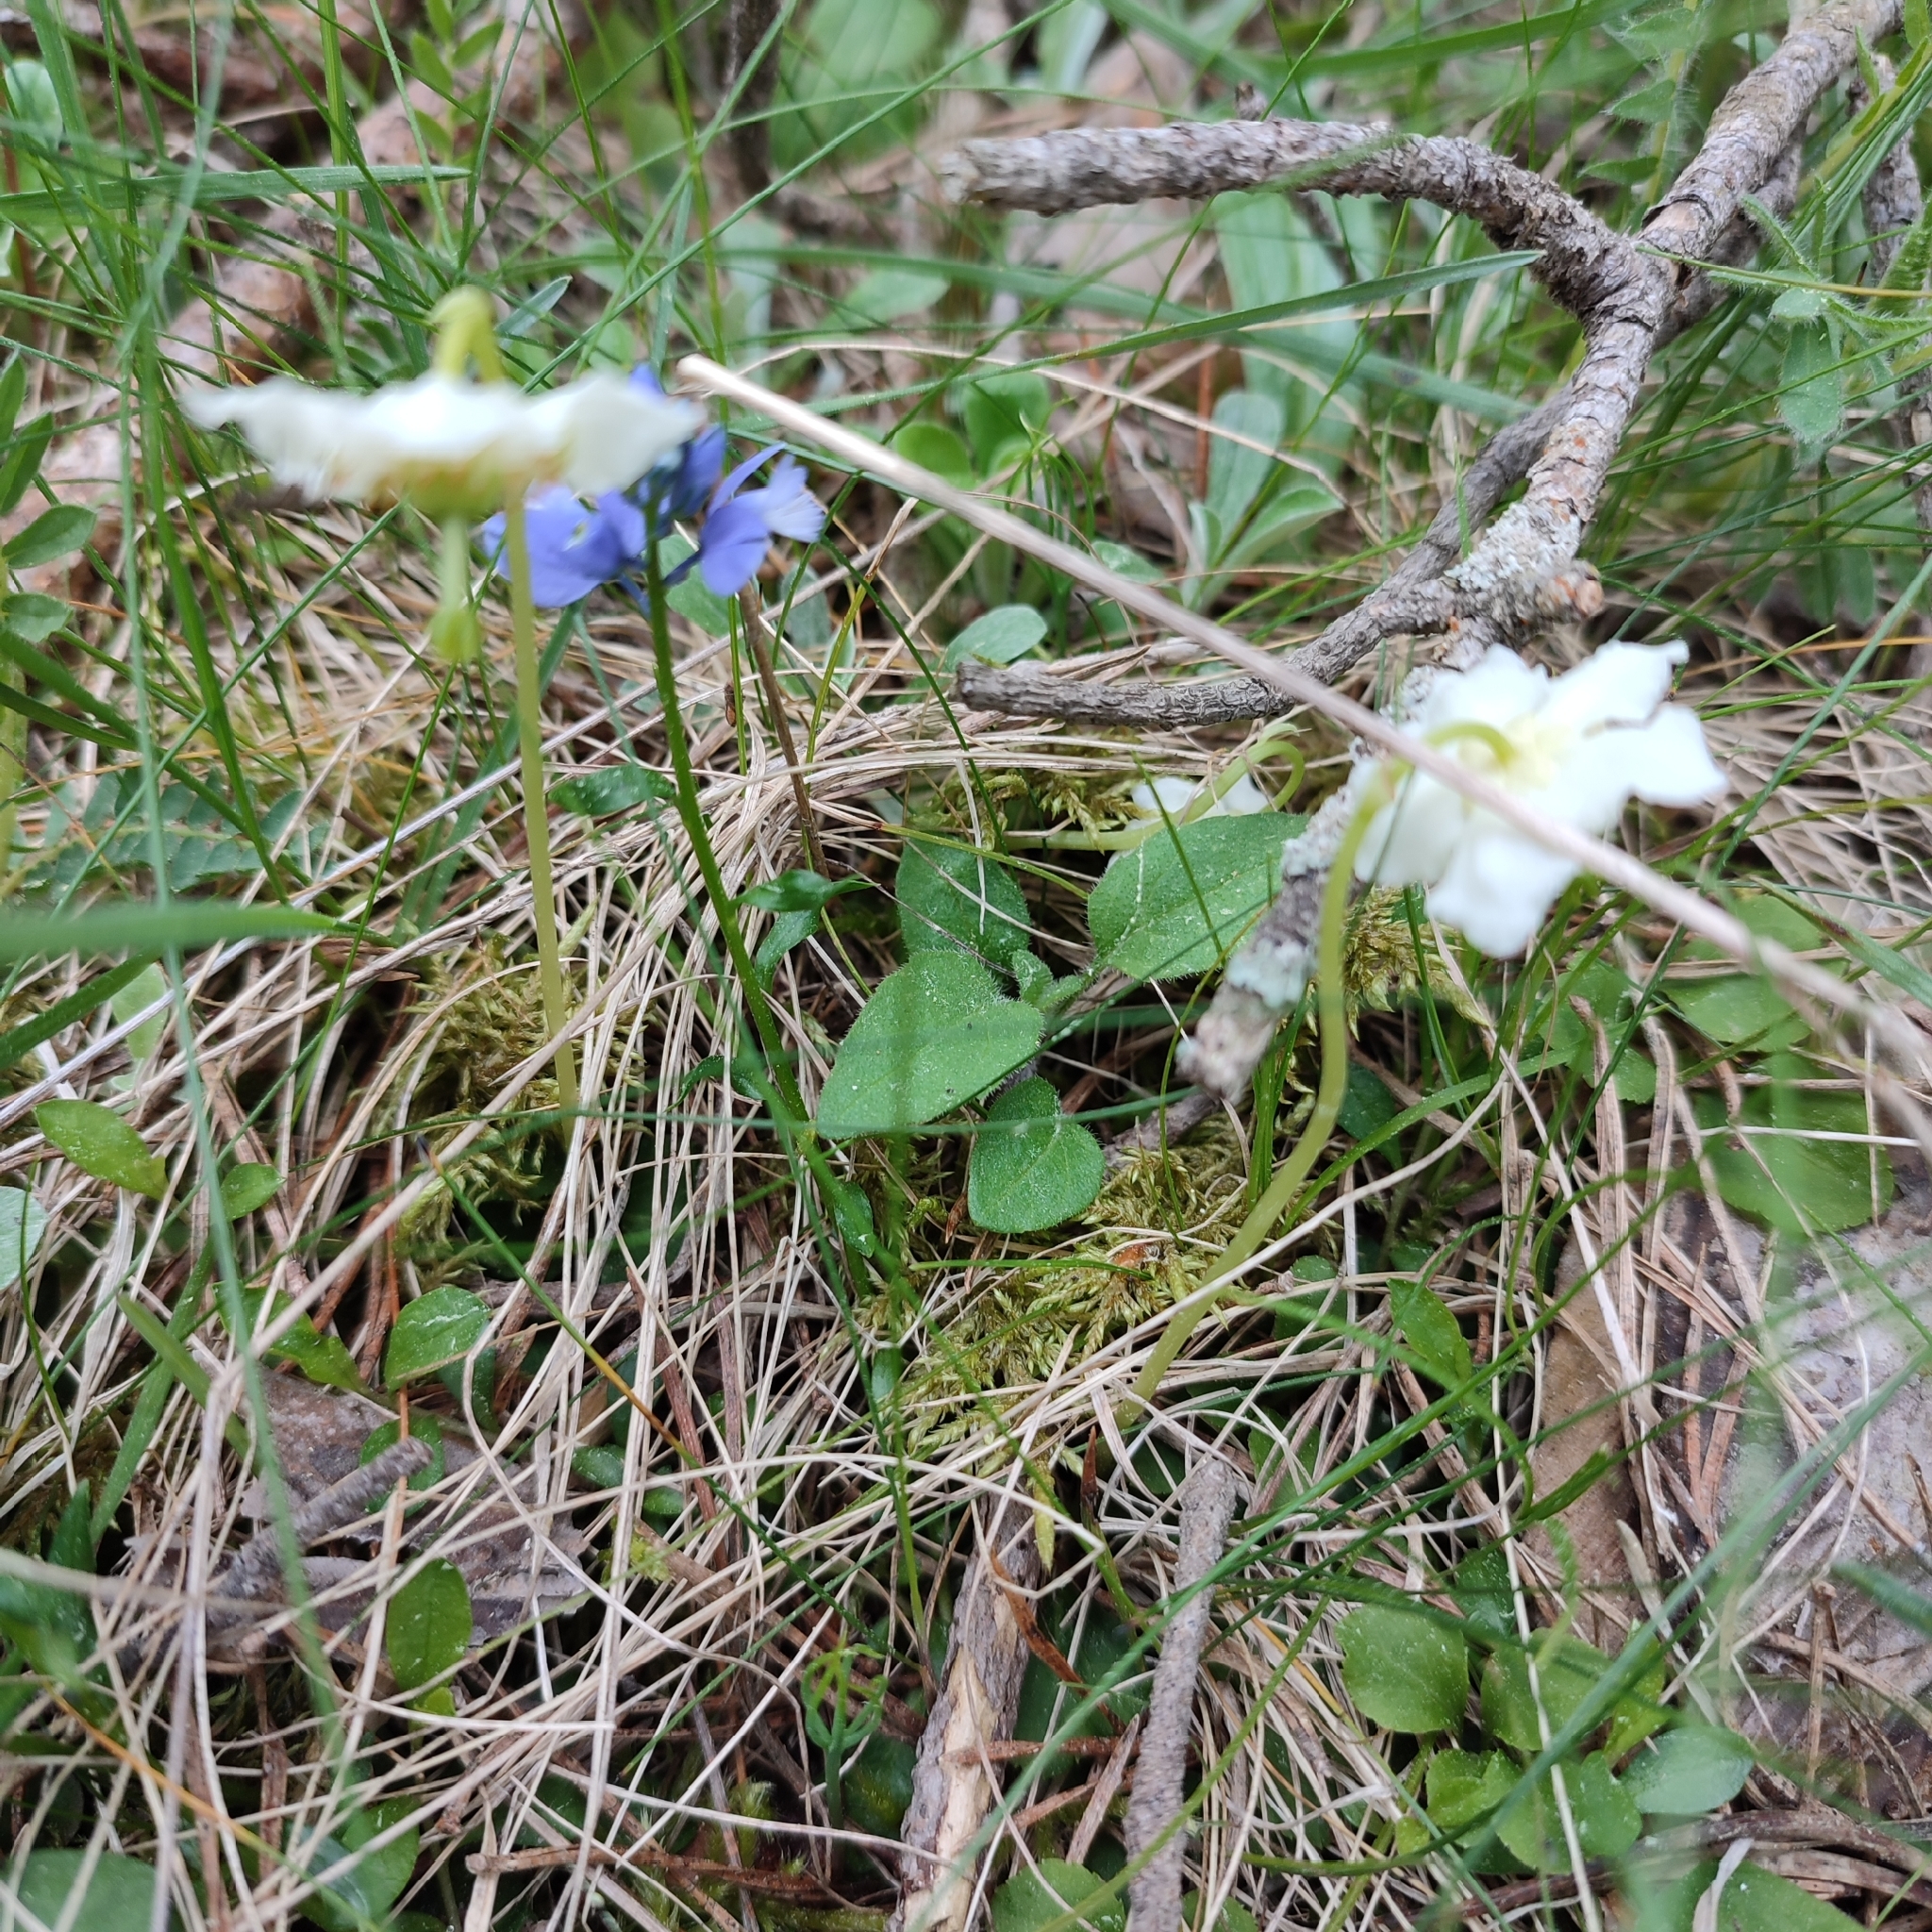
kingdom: Plantae
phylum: Tracheophyta
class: Magnoliopsida
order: Ericales
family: Ericaceae
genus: Moneses
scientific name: Moneses uniflora
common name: One-flowered wintergreen
